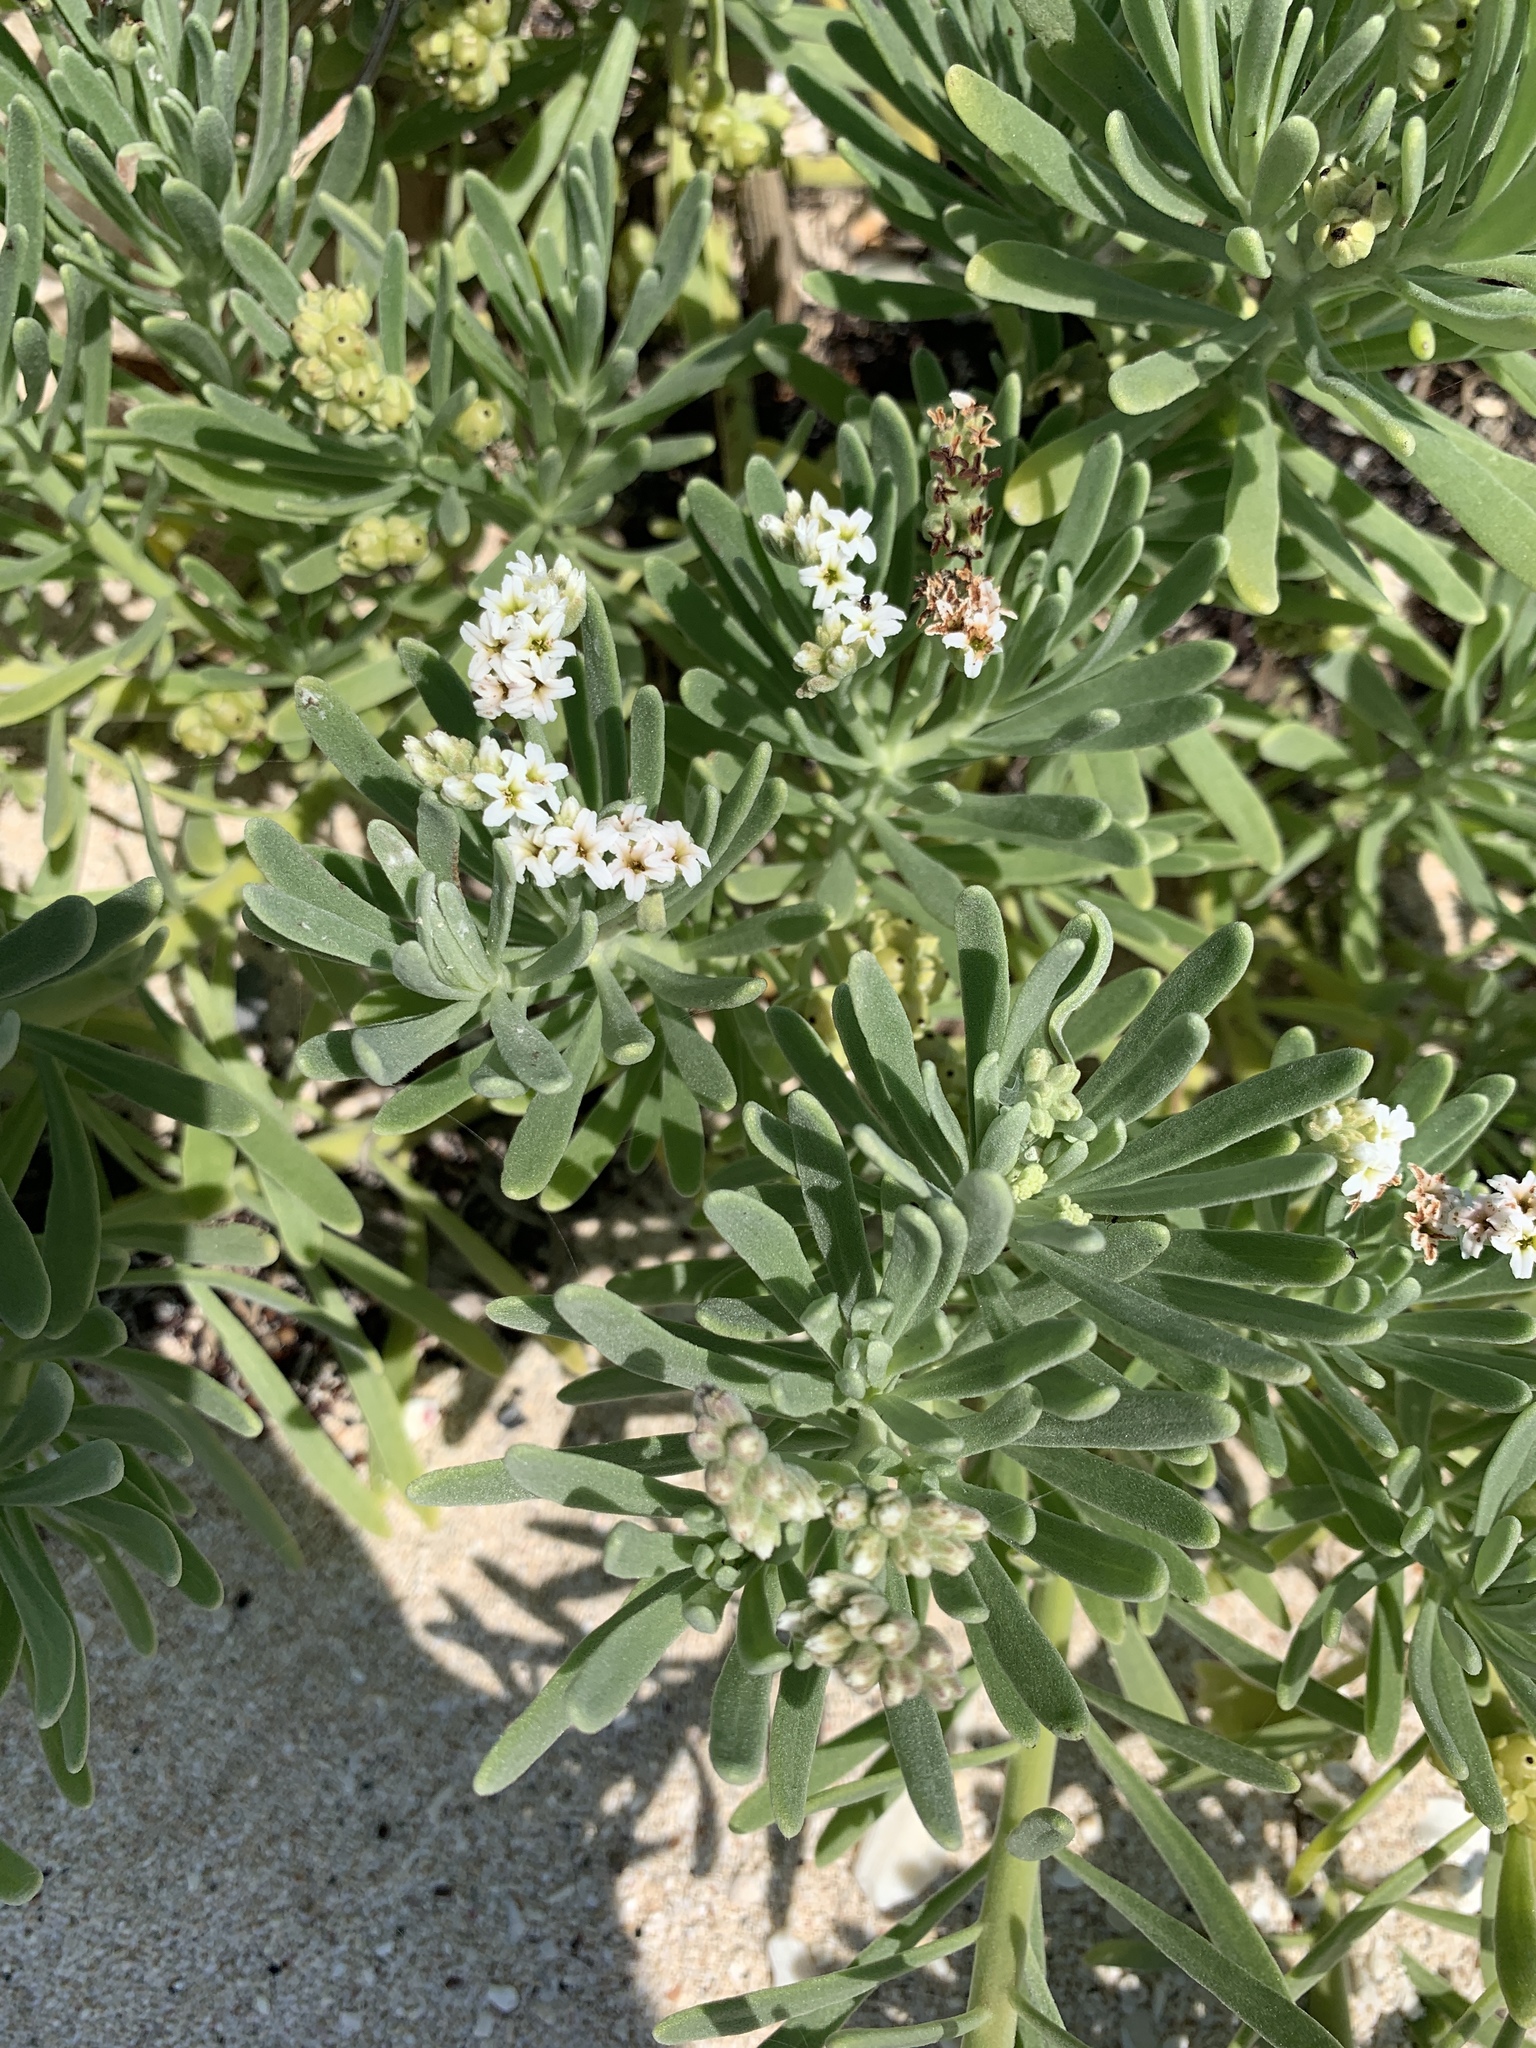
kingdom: Plantae
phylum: Tracheophyta
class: Magnoliopsida
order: Boraginales
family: Heliotropiaceae
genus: Tournefortia
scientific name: Tournefortia gnaphalodes
